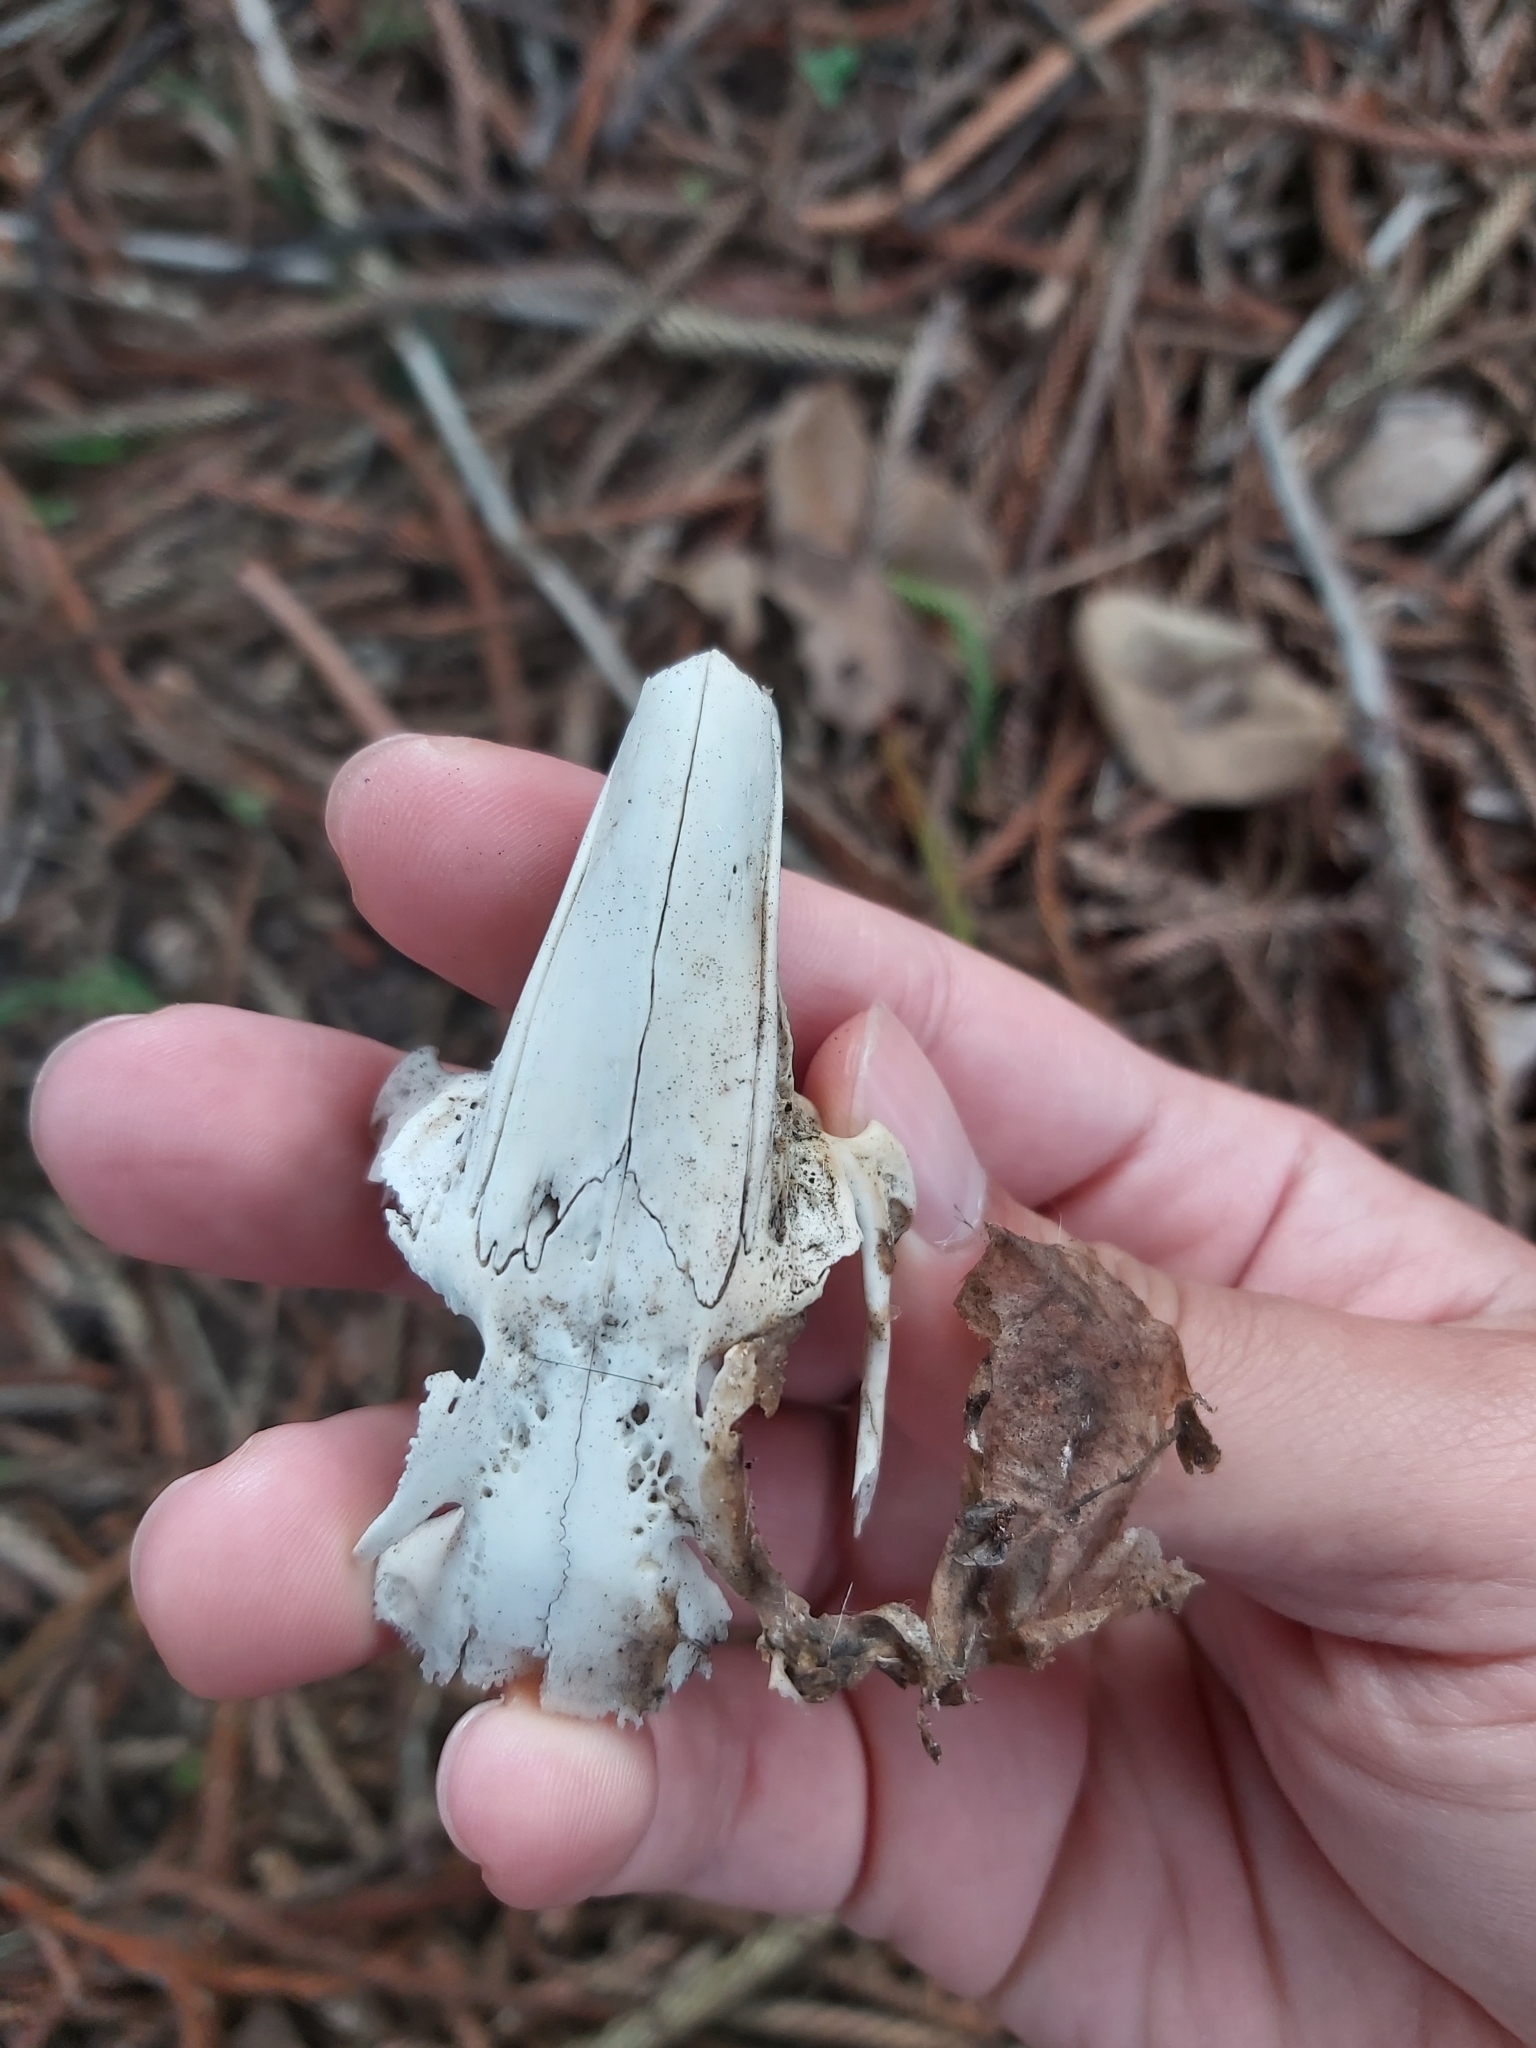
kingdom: Animalia
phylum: Chordata
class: Mammalia
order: Lagomorpha
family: Leporidae
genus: Oryctolagus
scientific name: Oryctolagus cuniculus
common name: European rabbit
